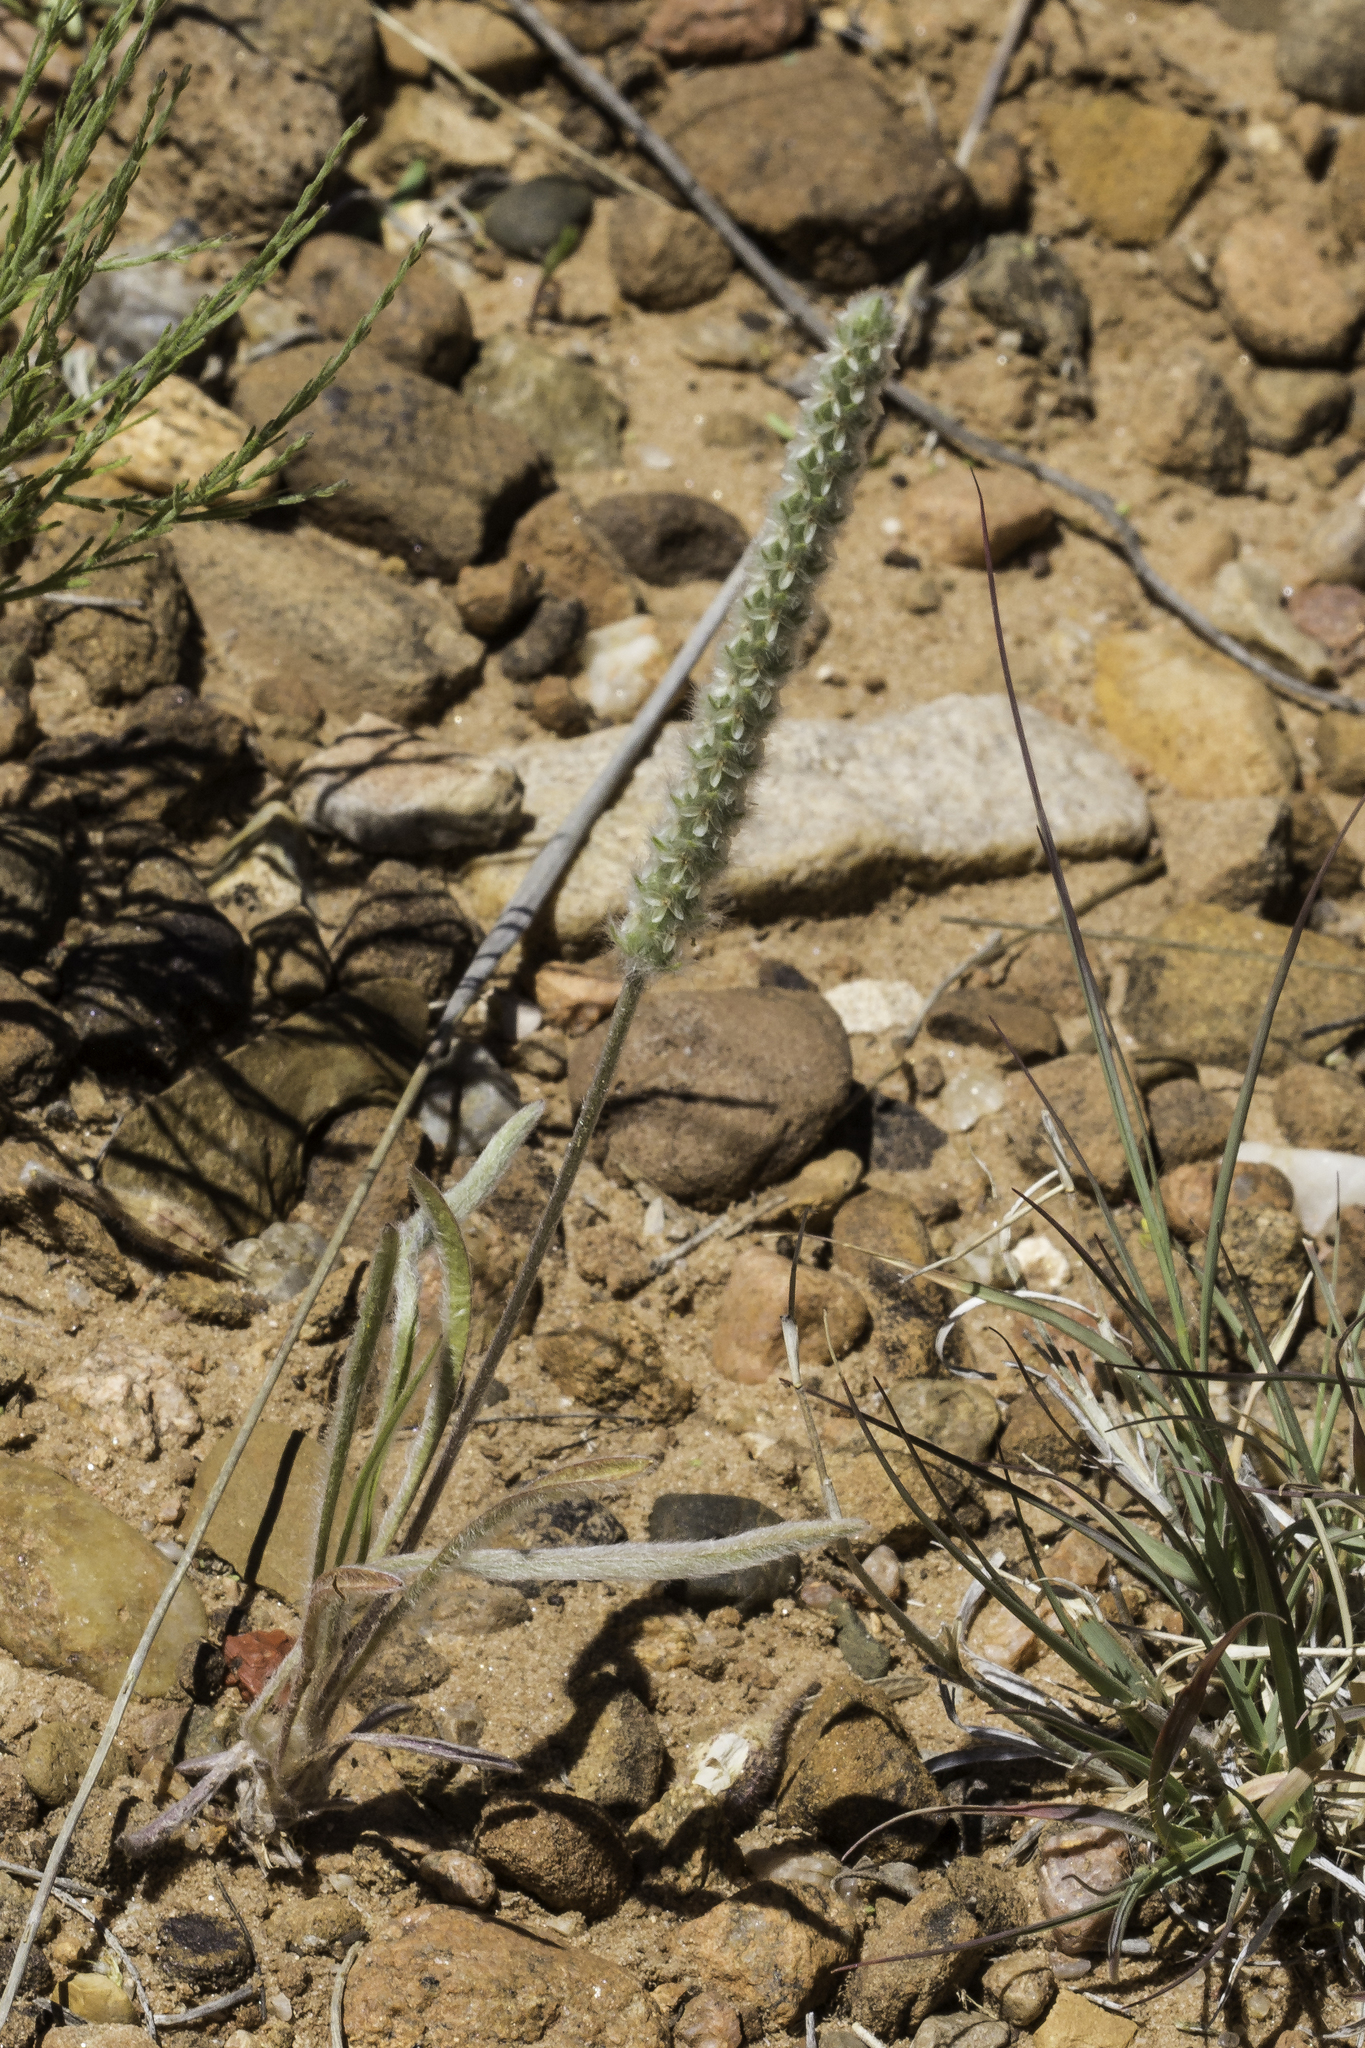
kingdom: Plantae
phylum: Tracheophyta
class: Magnoliopsida
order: Lamiales
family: Plantaginaceae
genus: Plantago
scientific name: Plantago patagonica
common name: Patagonia indian-wheat
